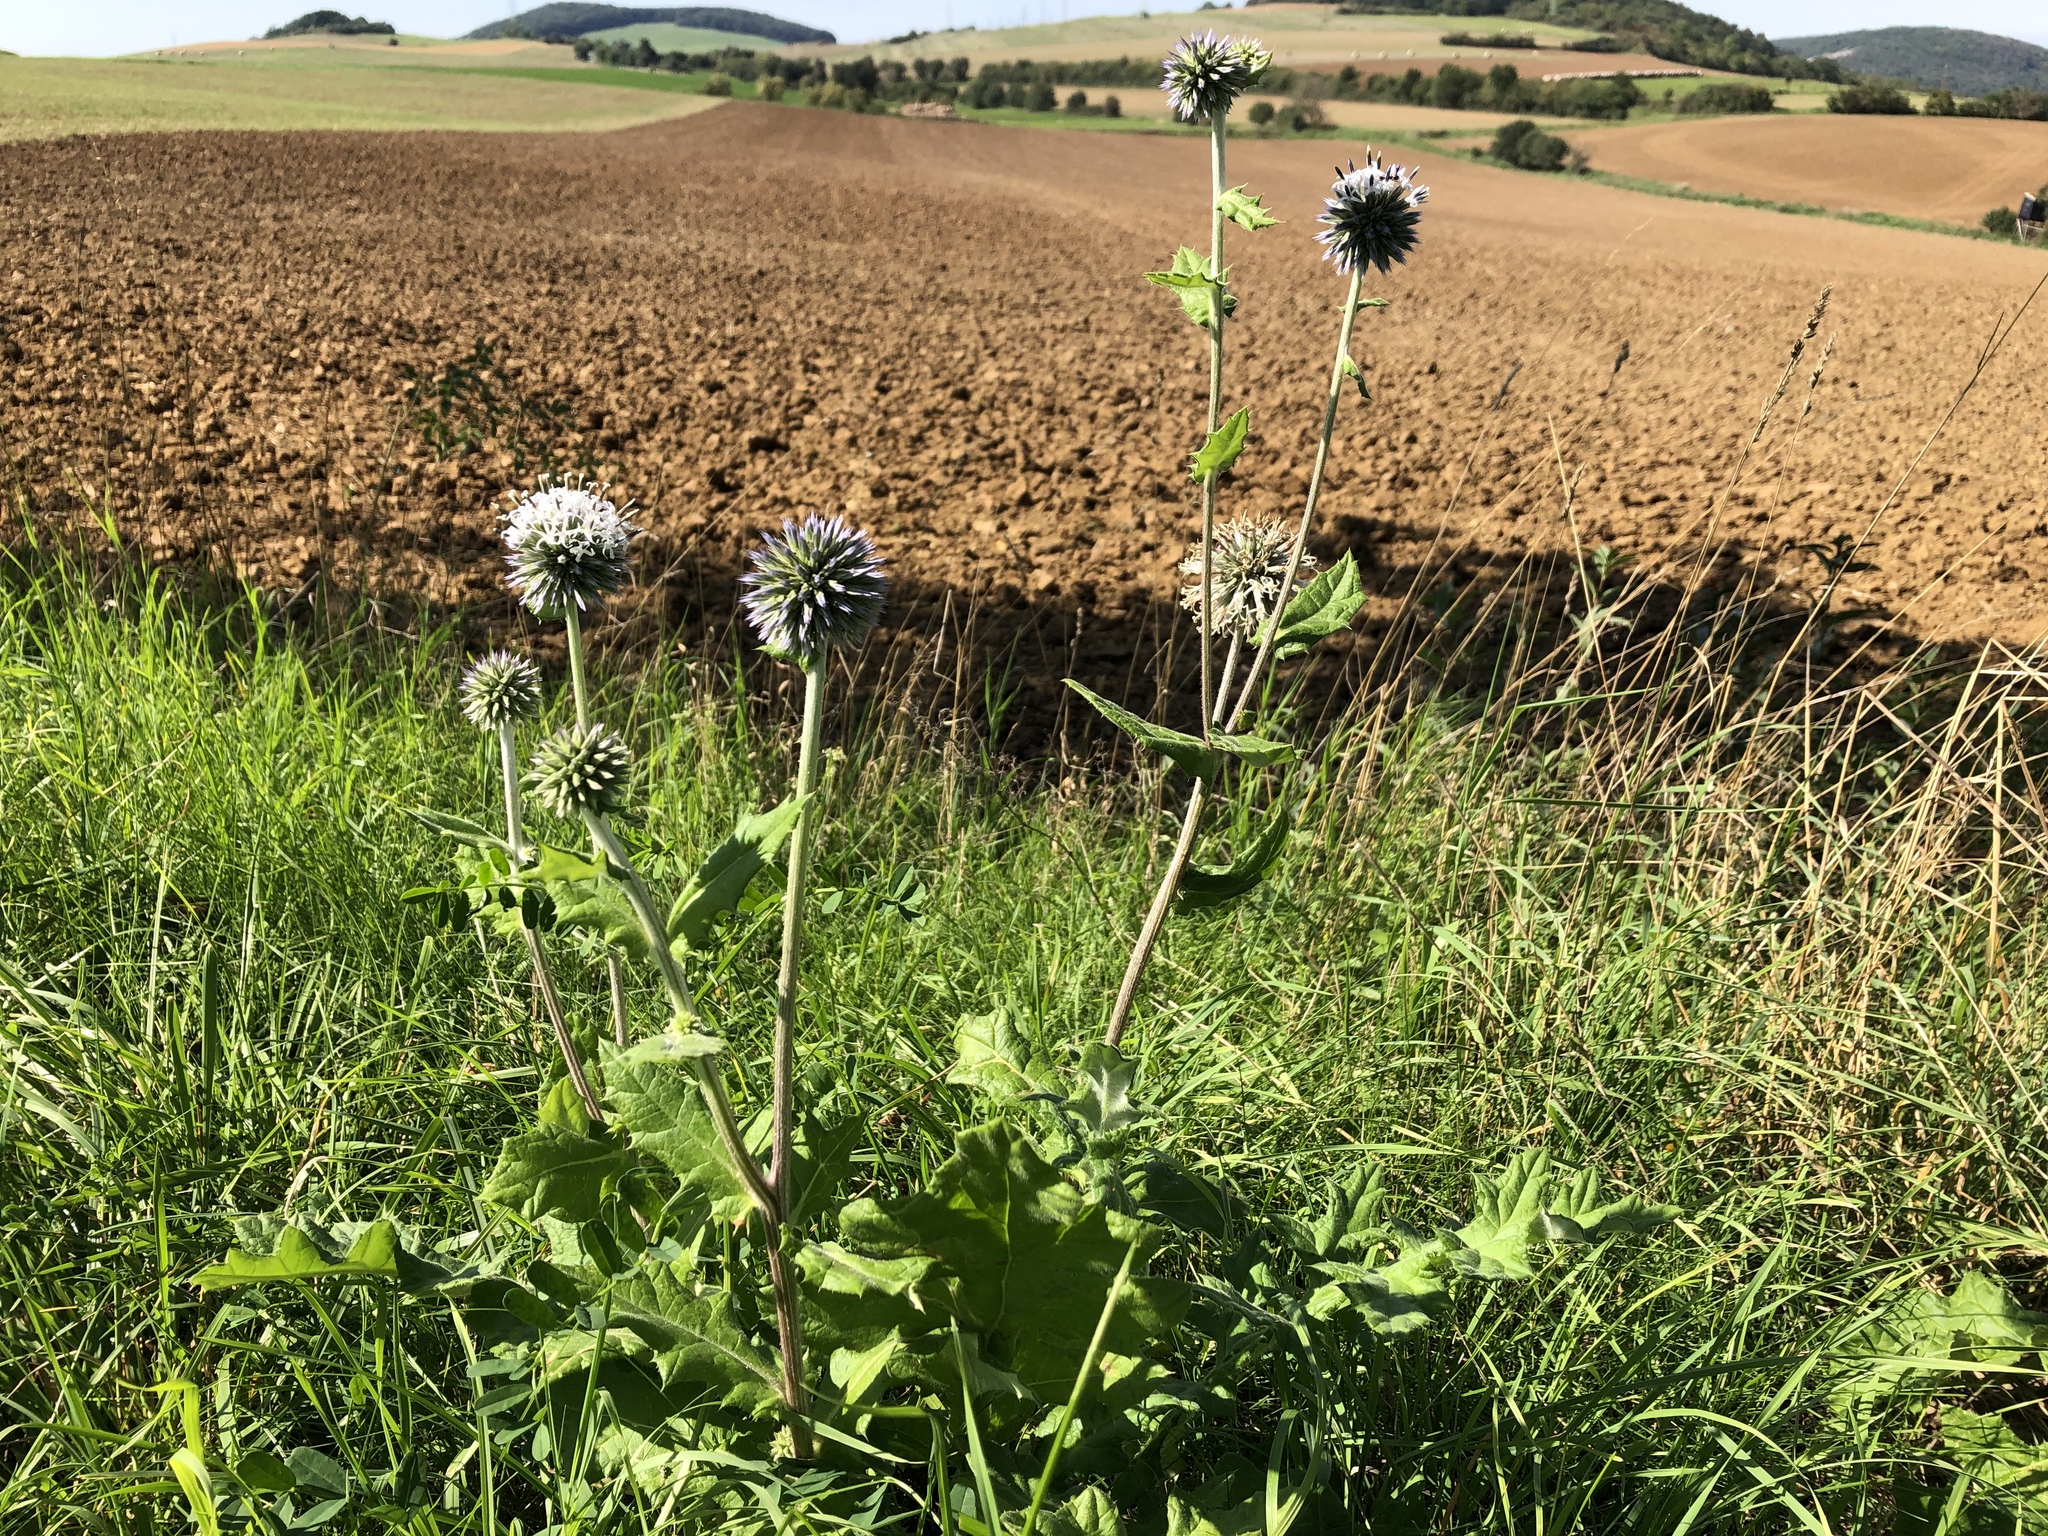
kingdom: Plantae
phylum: Tracheophyta
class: Magnoliopsida
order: Asterales
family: Asteraceae
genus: Echinops
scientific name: Echinops sphaerocephalus
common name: Glandular globe-thistle
